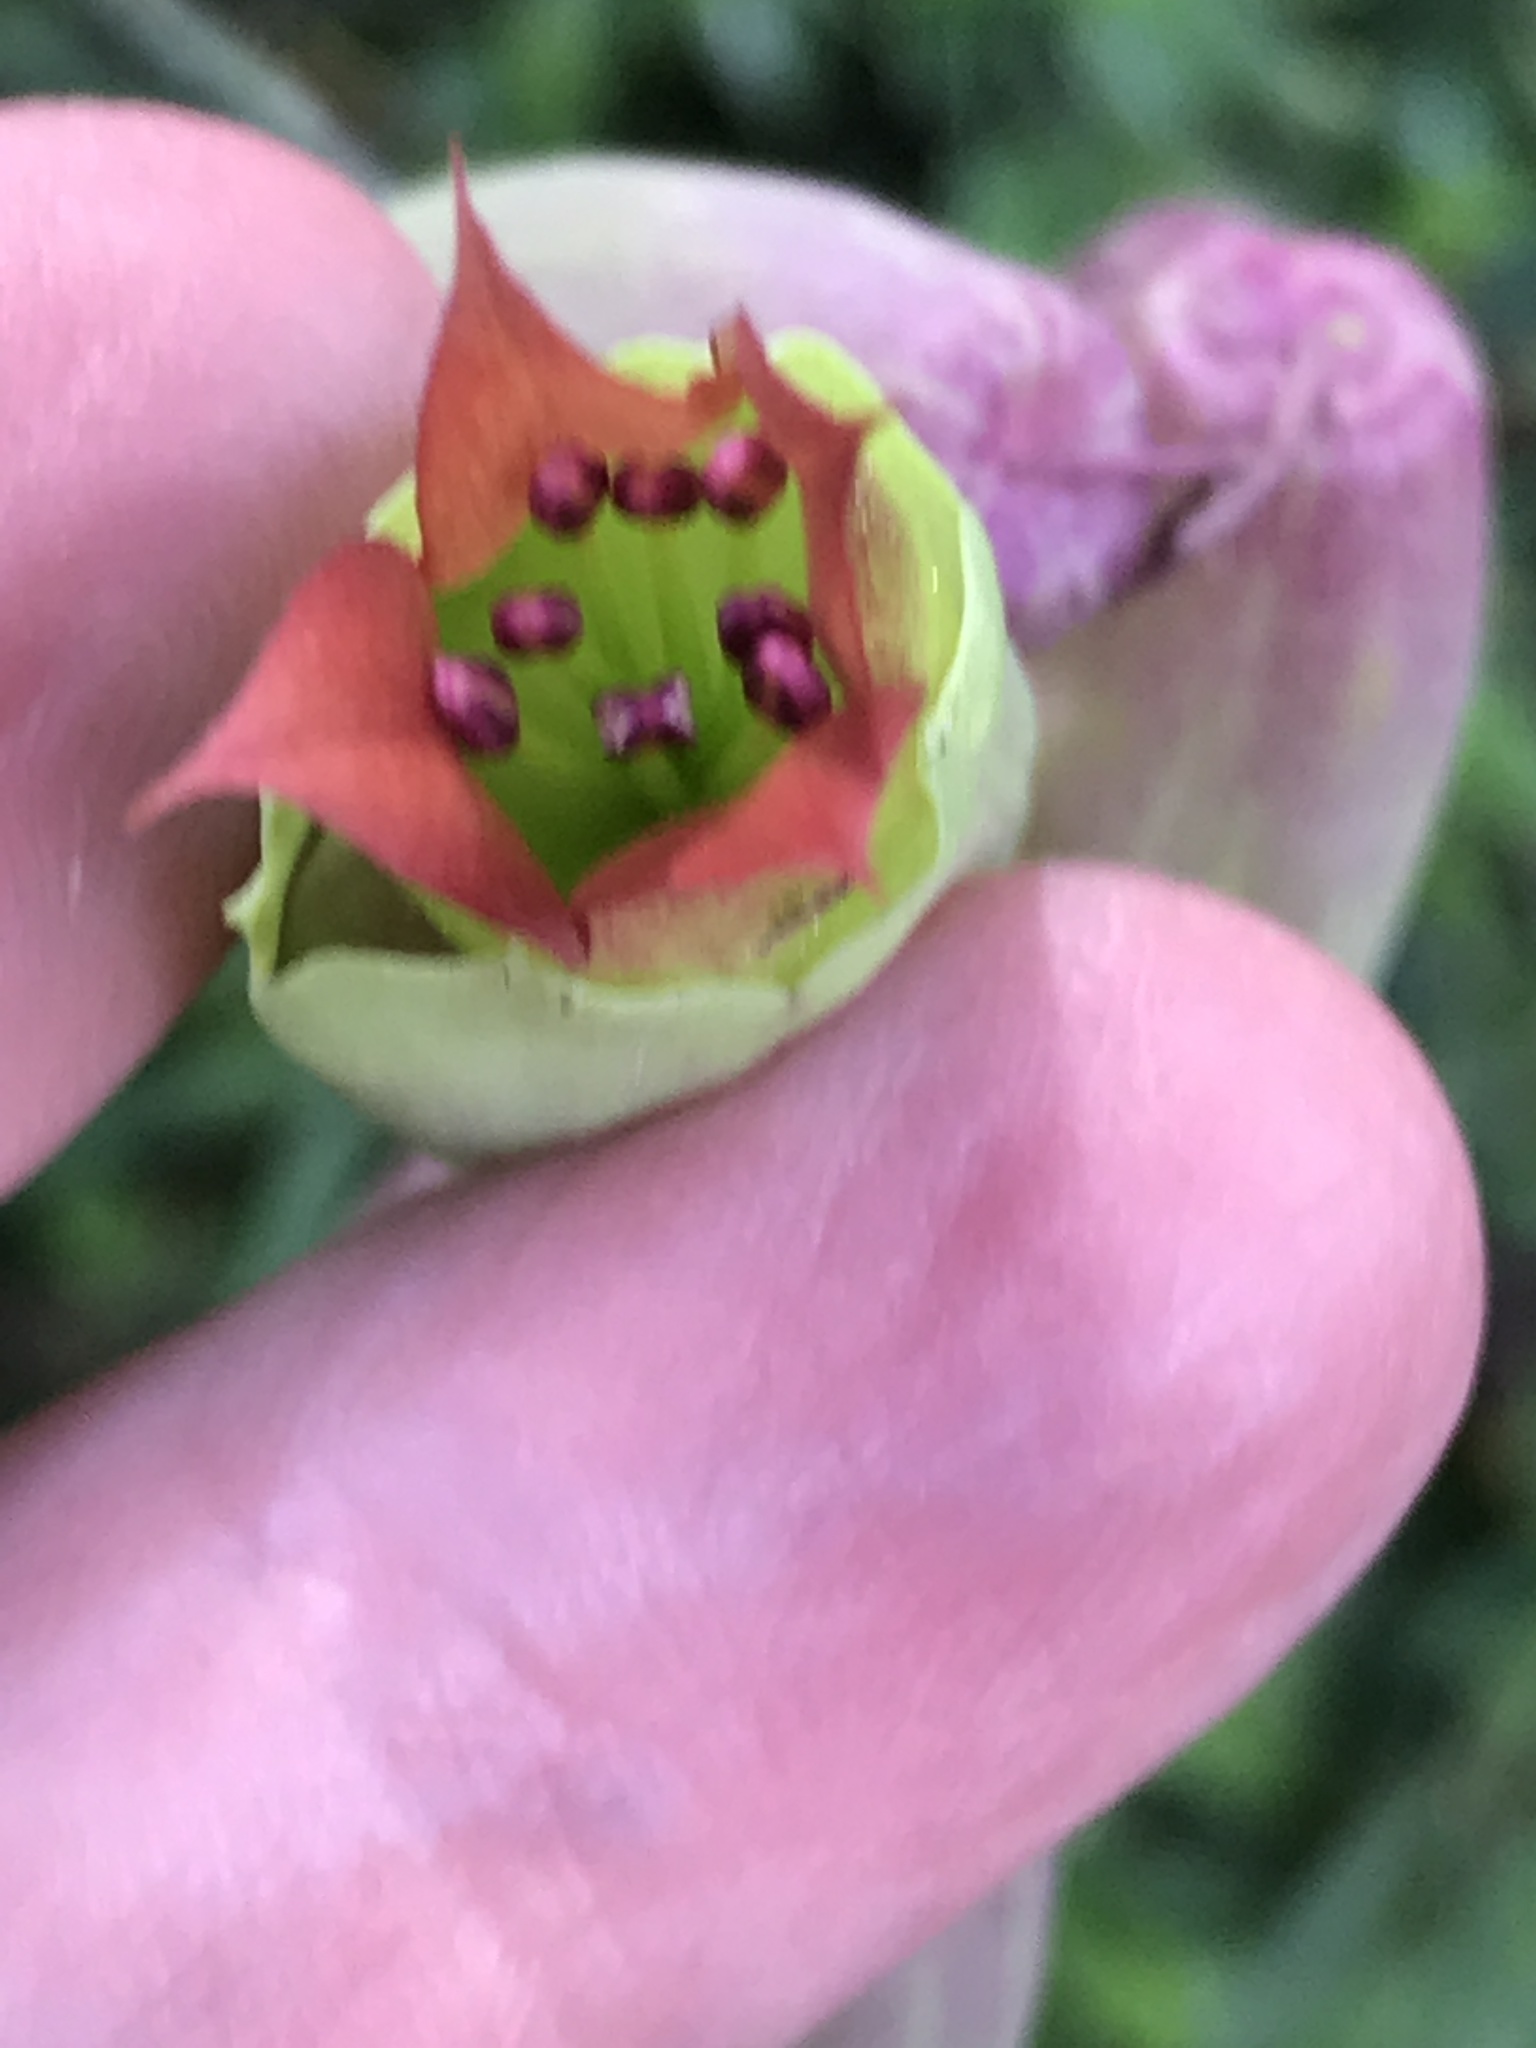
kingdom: Plantae
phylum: Tracheophyta
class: Magnoliopsida
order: Saxifragales
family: Crassulaceae
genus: Kalanchoe
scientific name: Kalanchoe pinnata
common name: Cathedral bells
